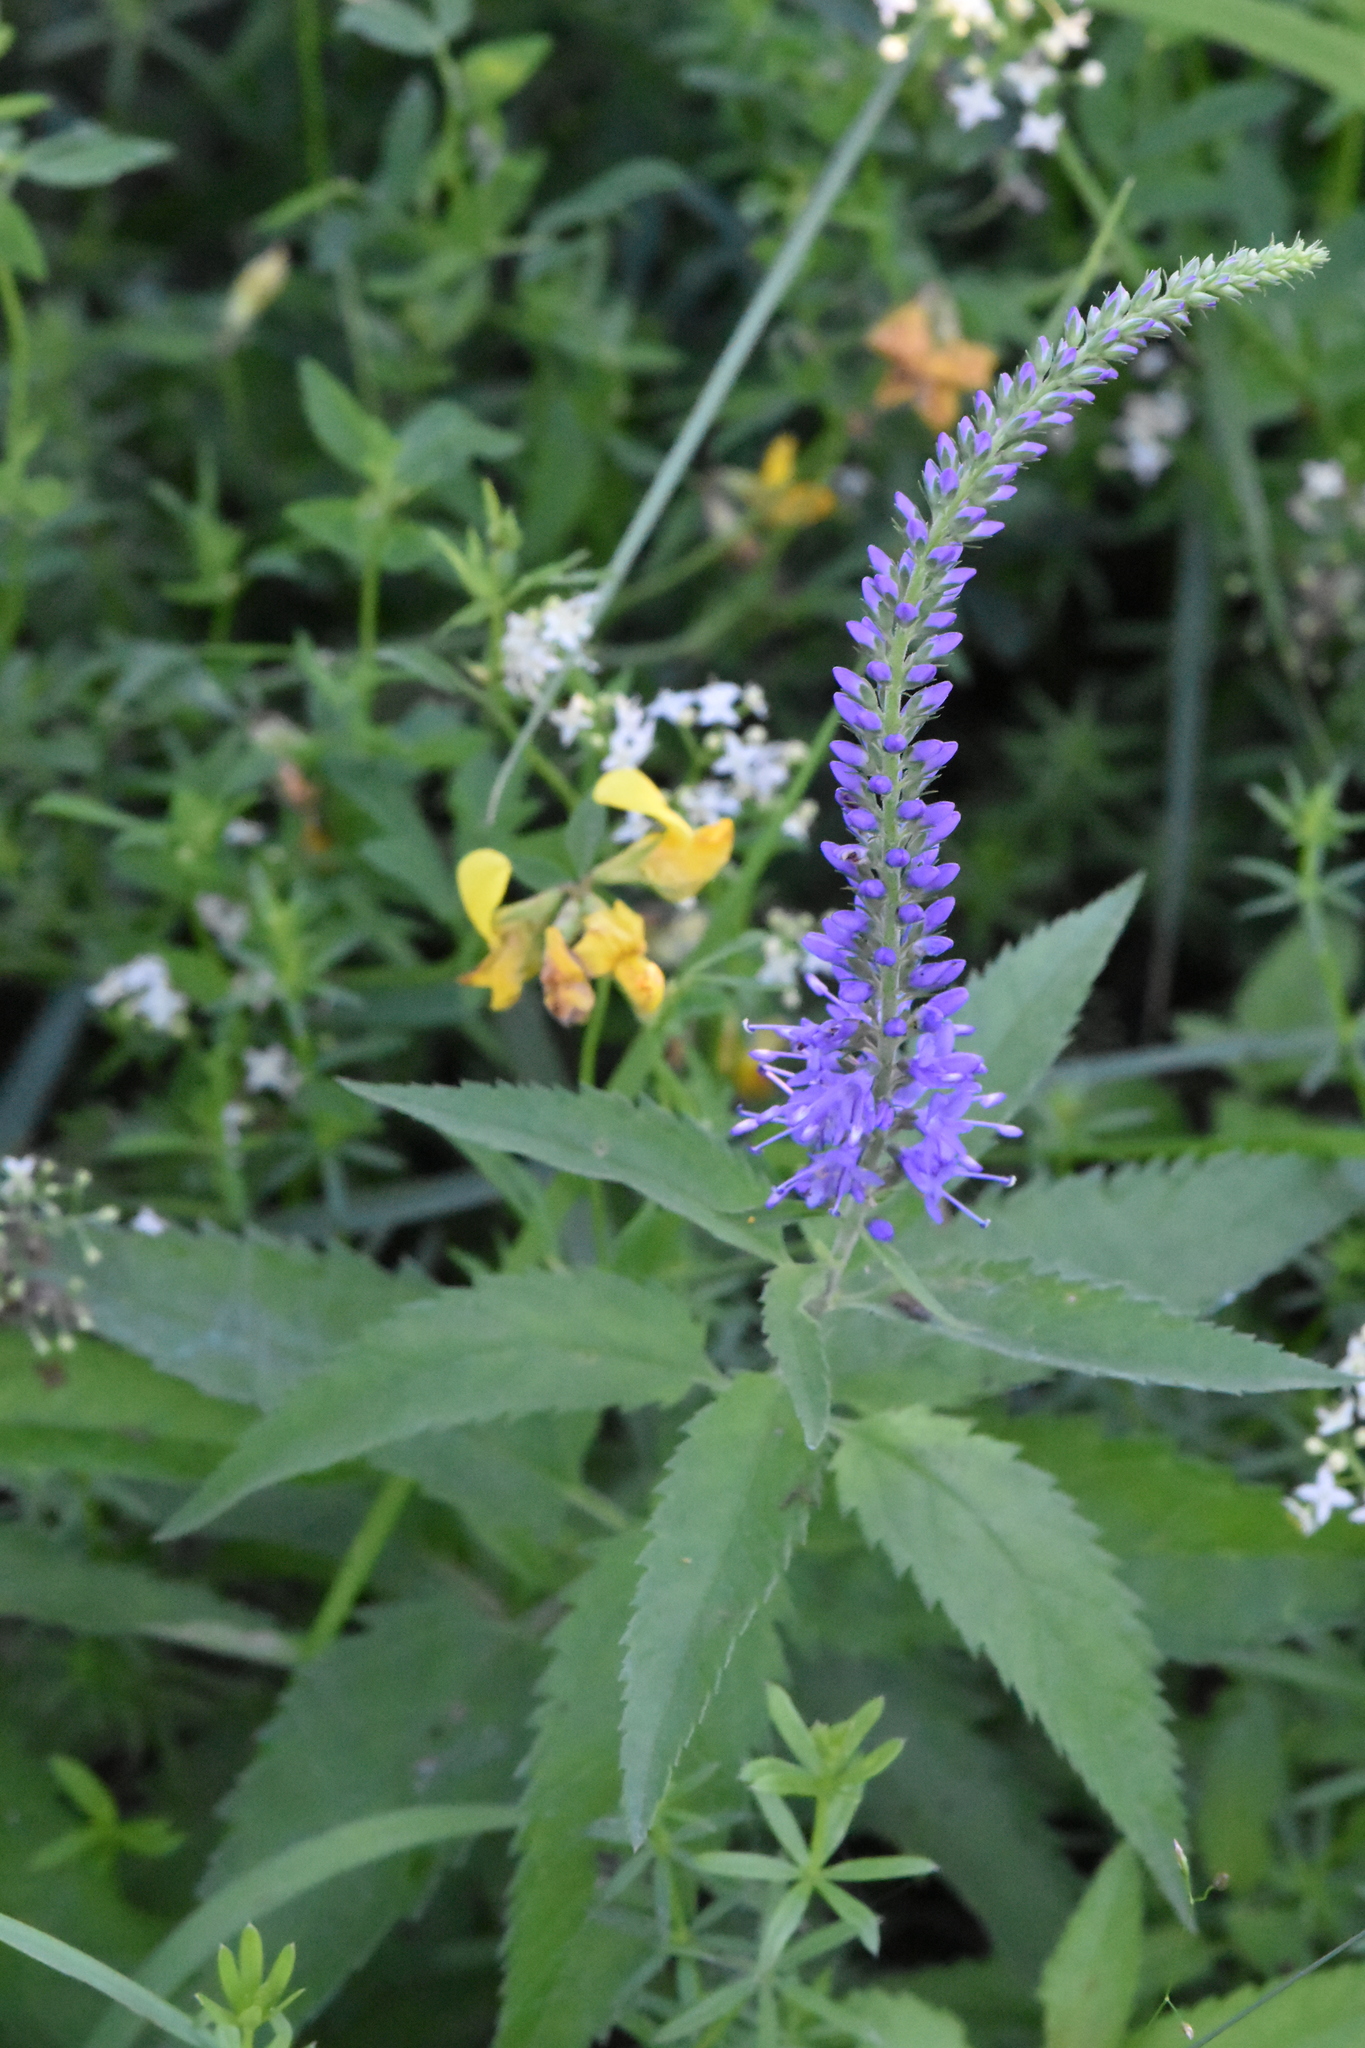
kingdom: Plantae
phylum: Tracheophyta
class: Magnoliopsida
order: Lamiales
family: Plantaginaceae
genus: Veronica
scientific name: Veronica longifolia
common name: Garden speedwell
